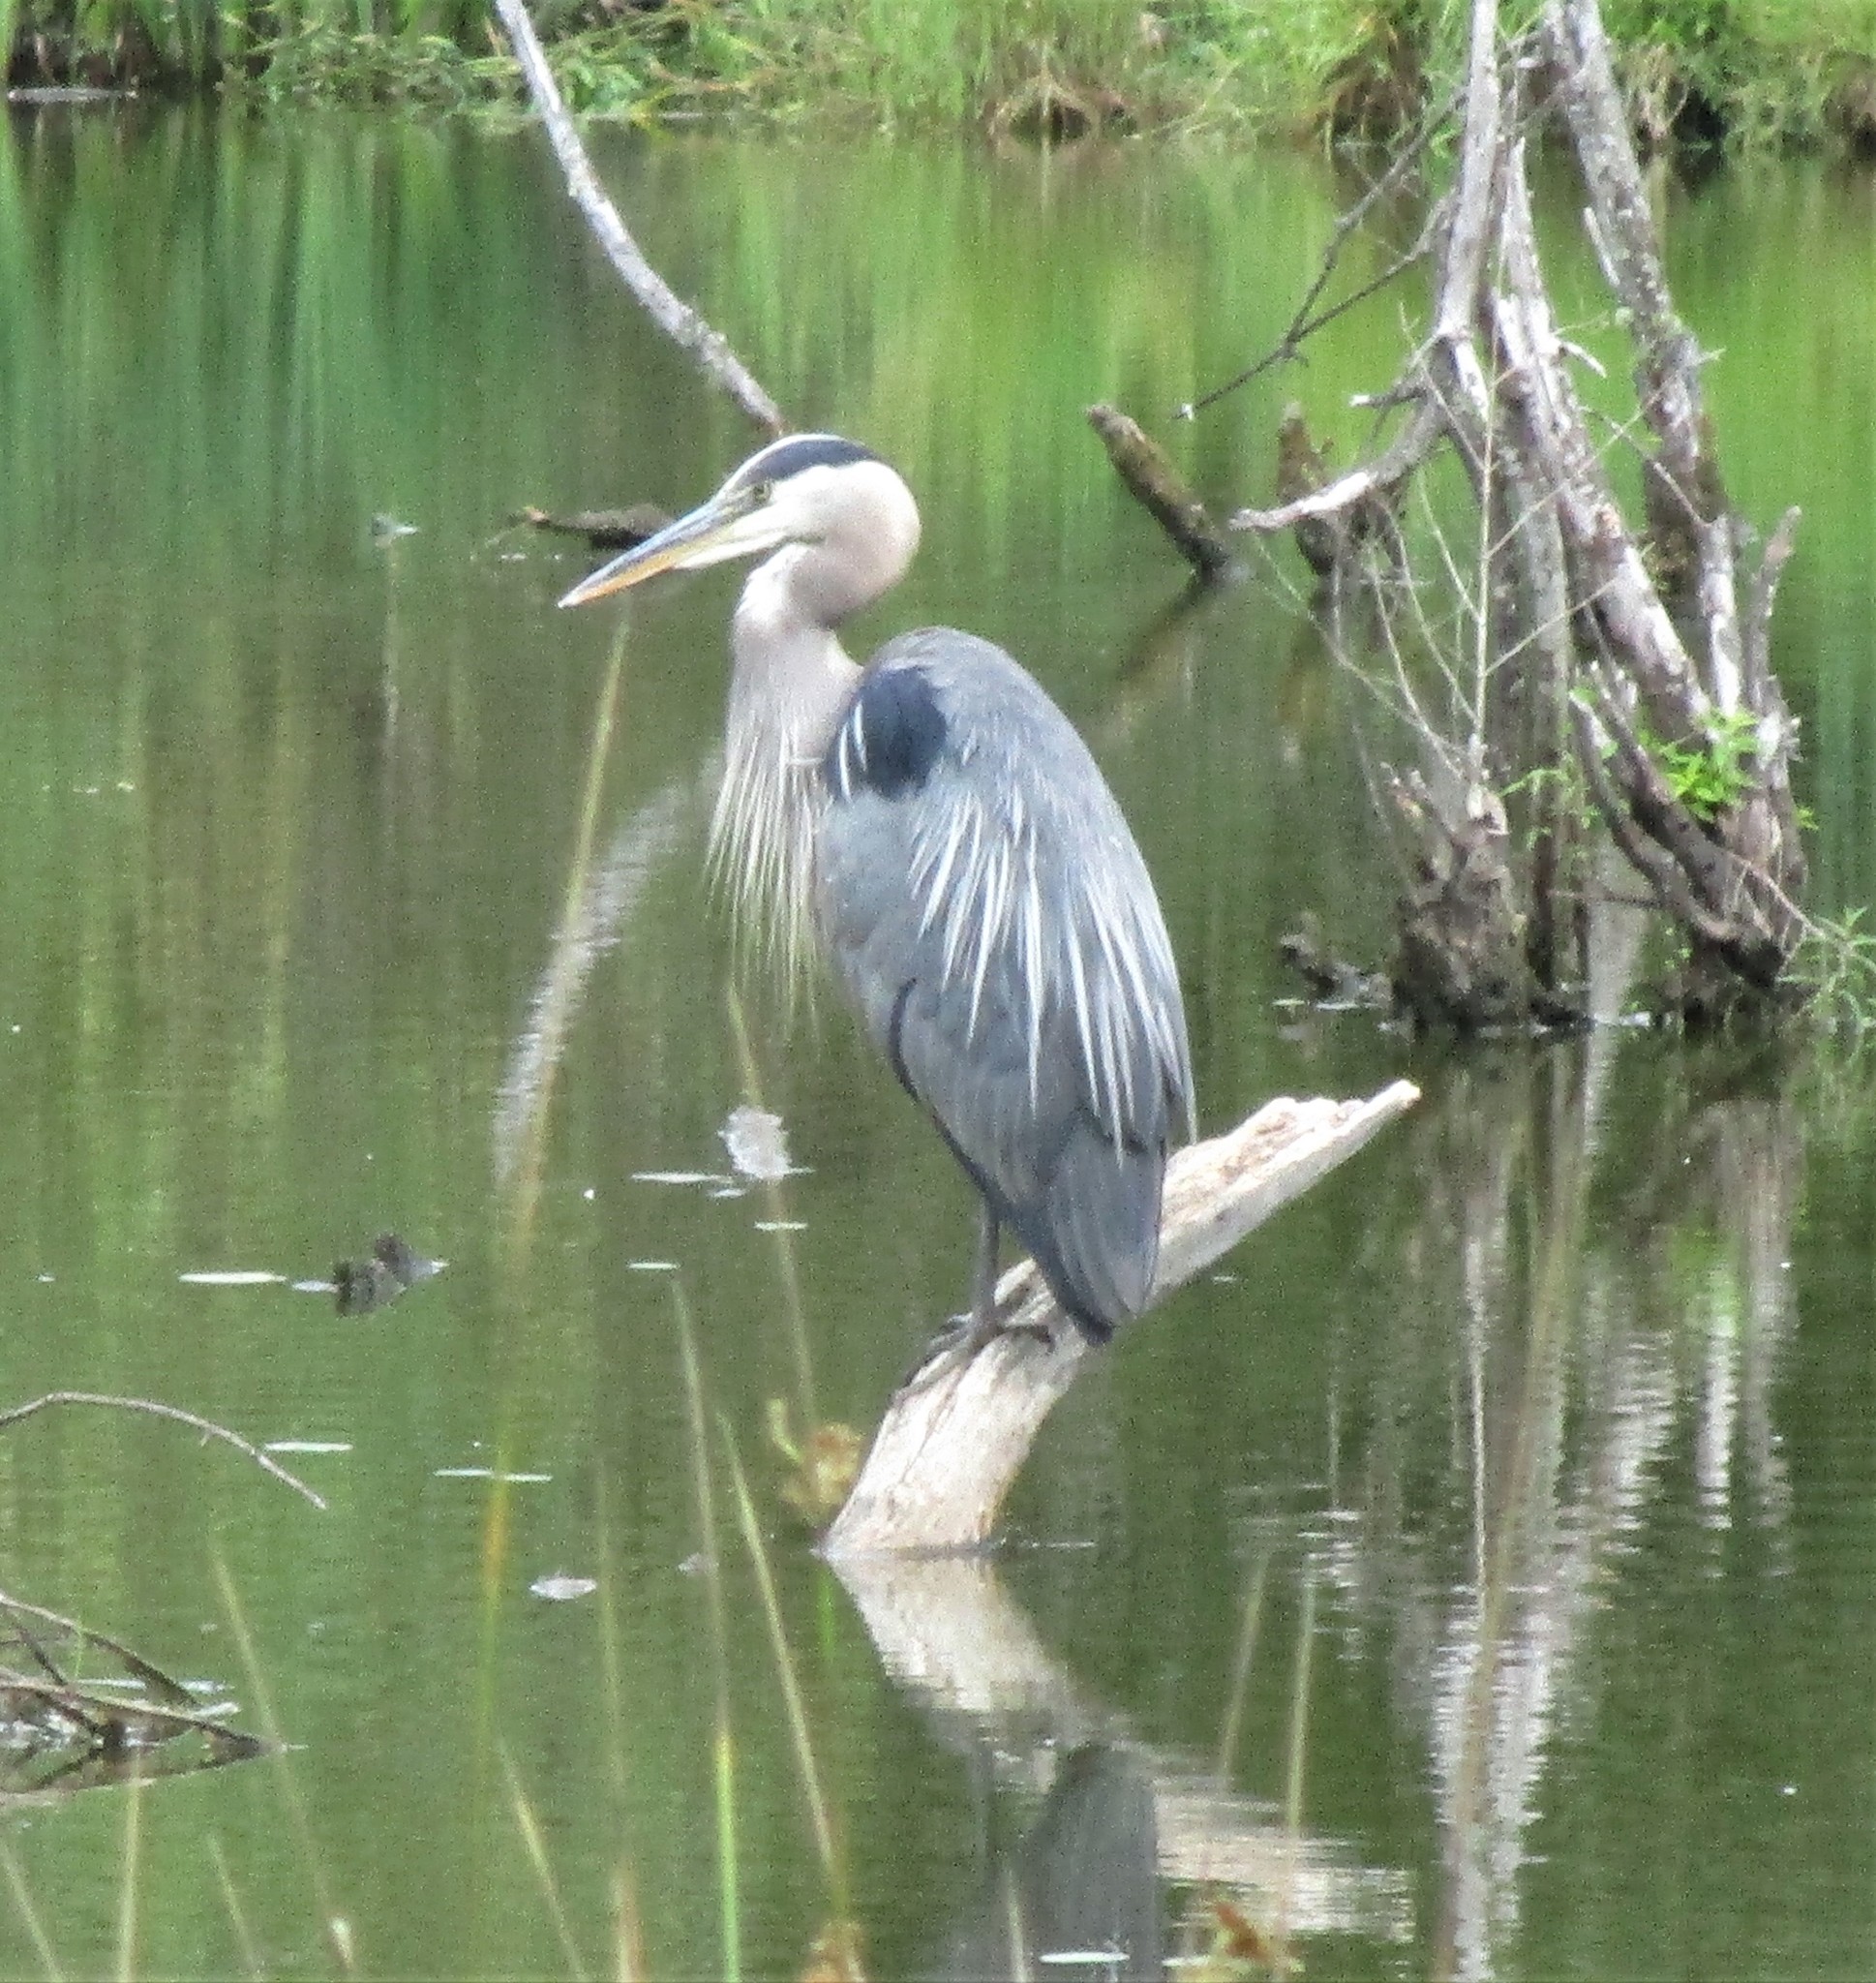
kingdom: Animalia
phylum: Chordata
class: Aves
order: Pelecaniformes
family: Ardeidae
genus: Ardea
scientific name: Ardea herodias
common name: Great blue heron
